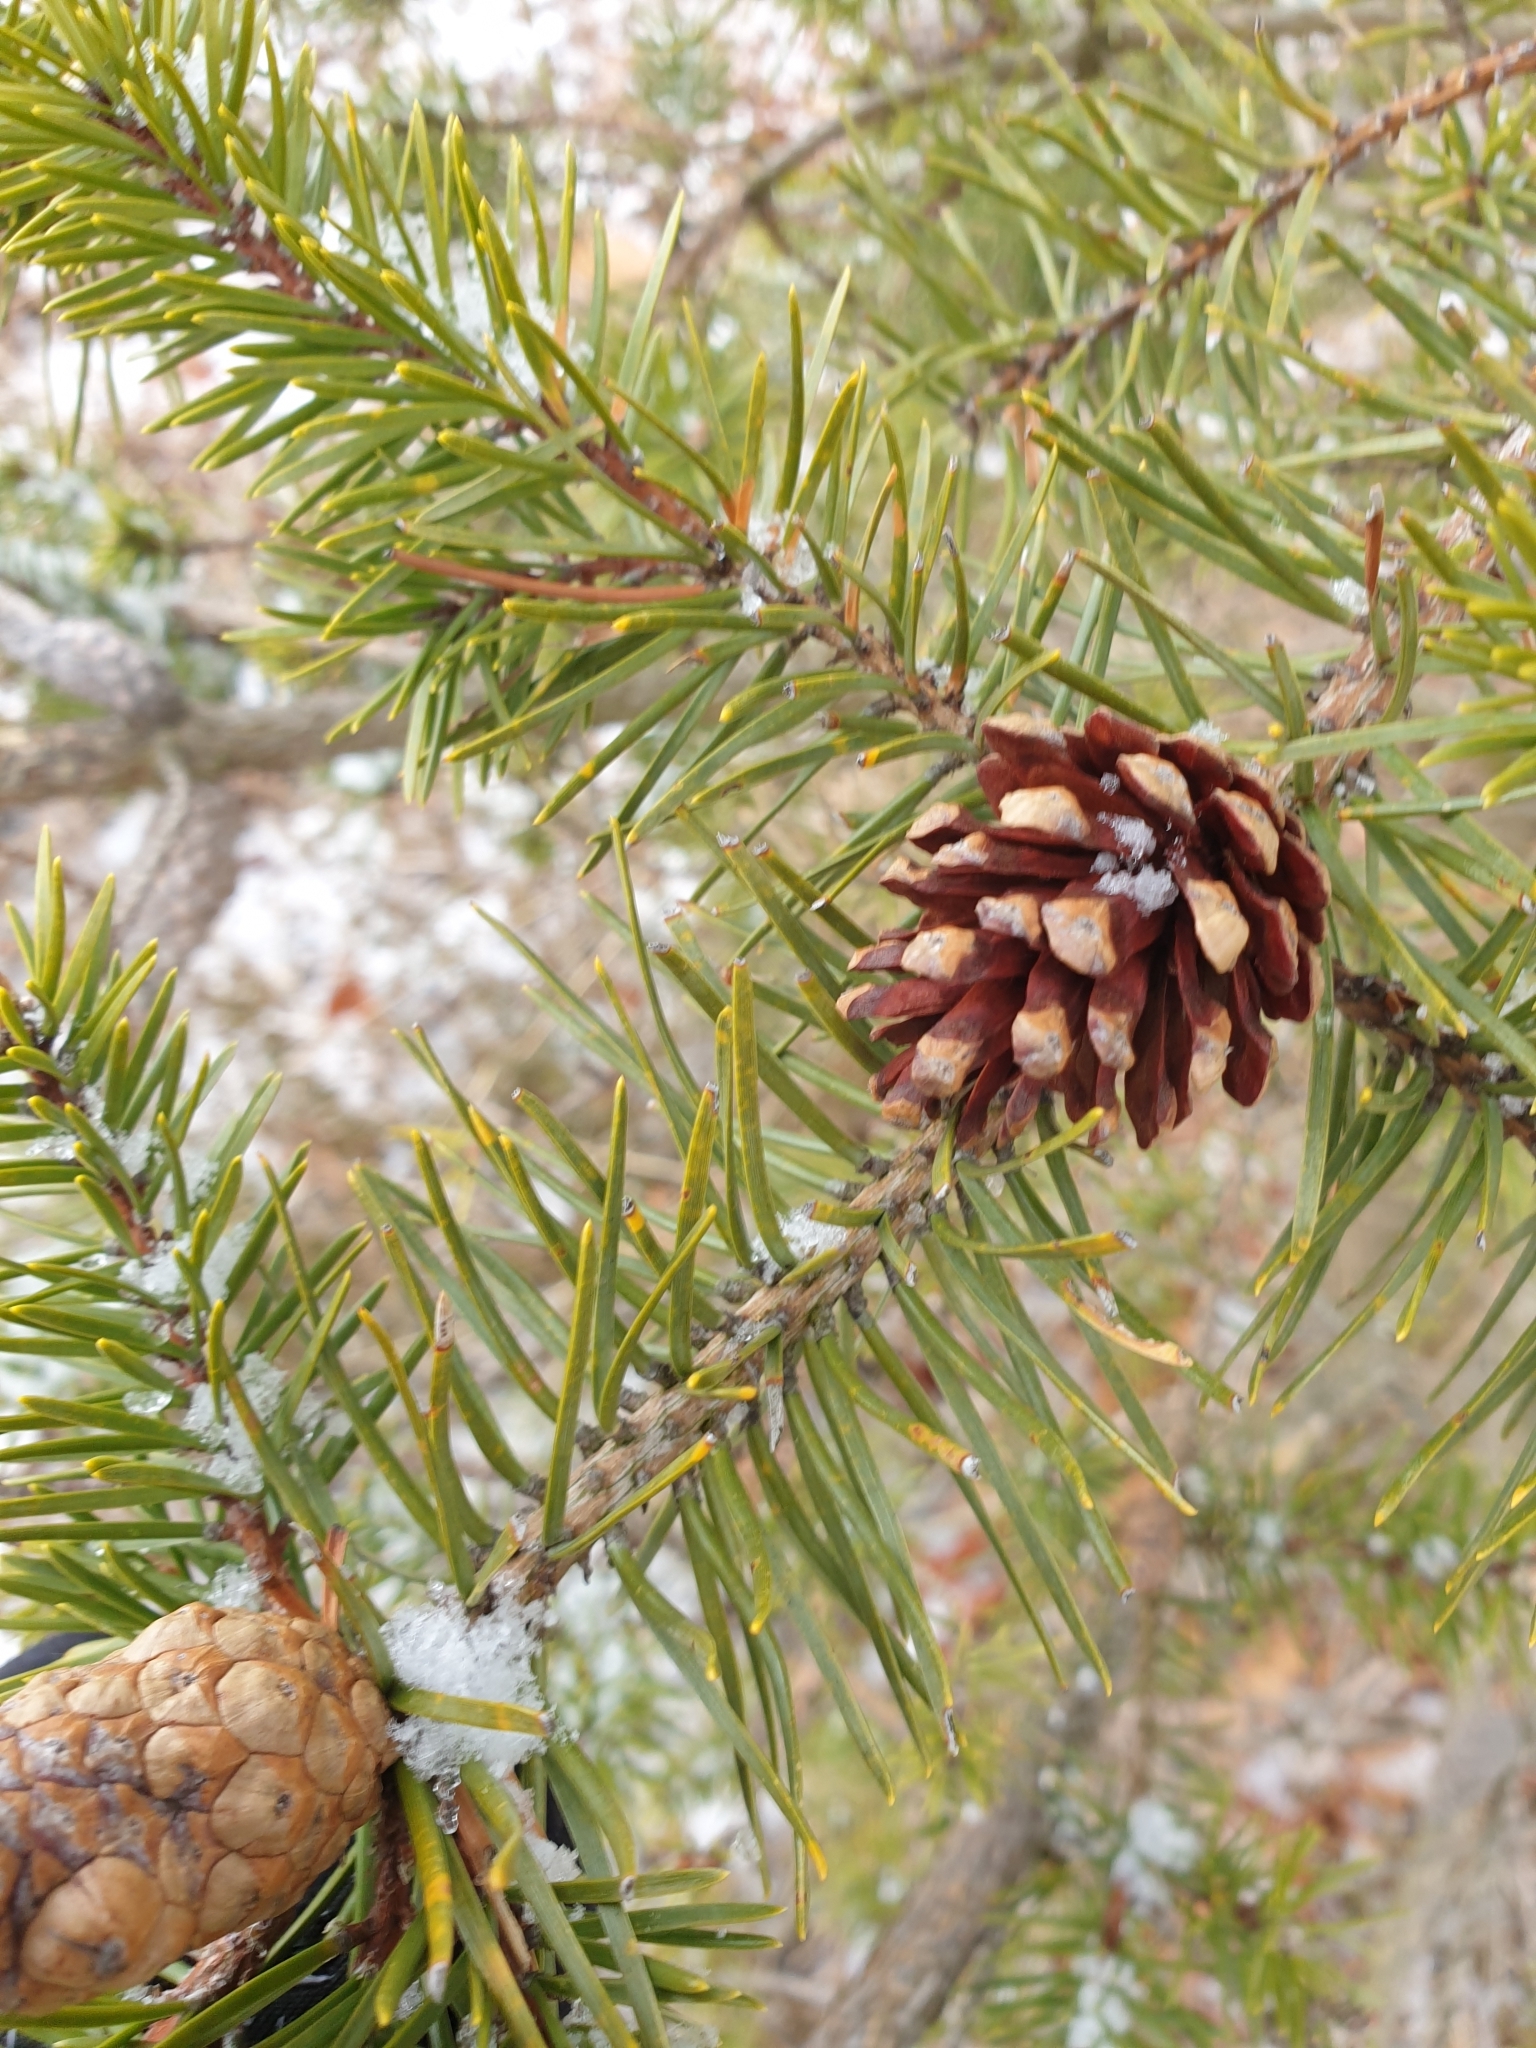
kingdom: Plantae
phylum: Tracheophyta
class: Pinopsida
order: Pinales
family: Pinaceae
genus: Pinus
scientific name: Pinus banksiana
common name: Jack pine
